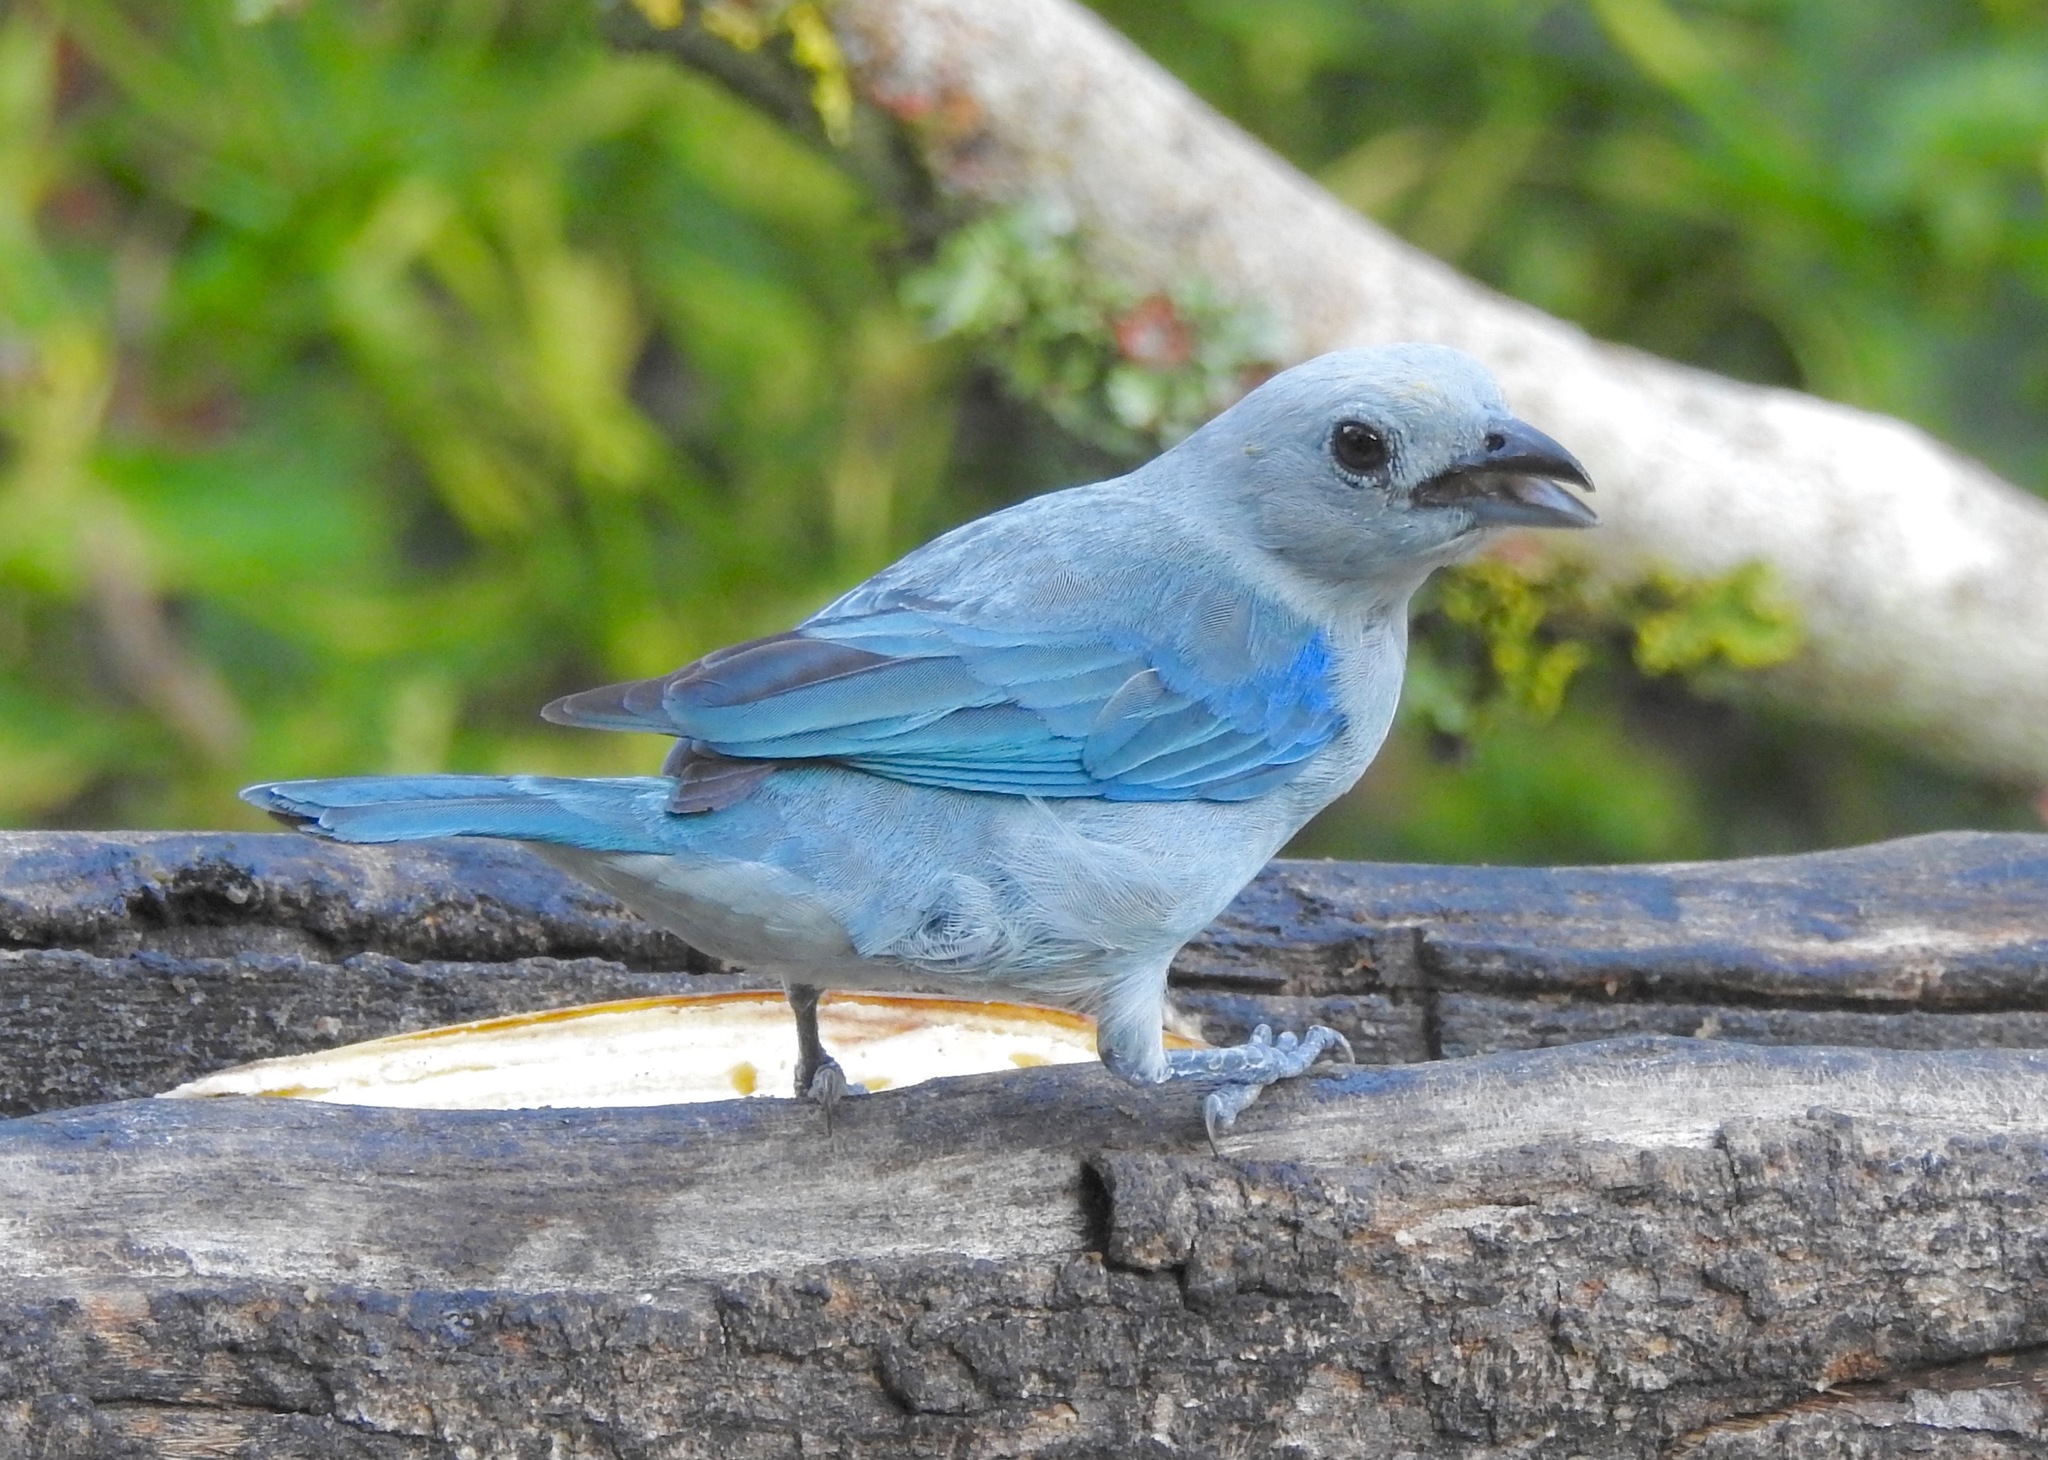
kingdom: Animalia
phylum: Chordata
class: Aves
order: Passeriformes
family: Thraupidae
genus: Thraupis
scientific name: Thraupis episcopus
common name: Blue-grey tanager
